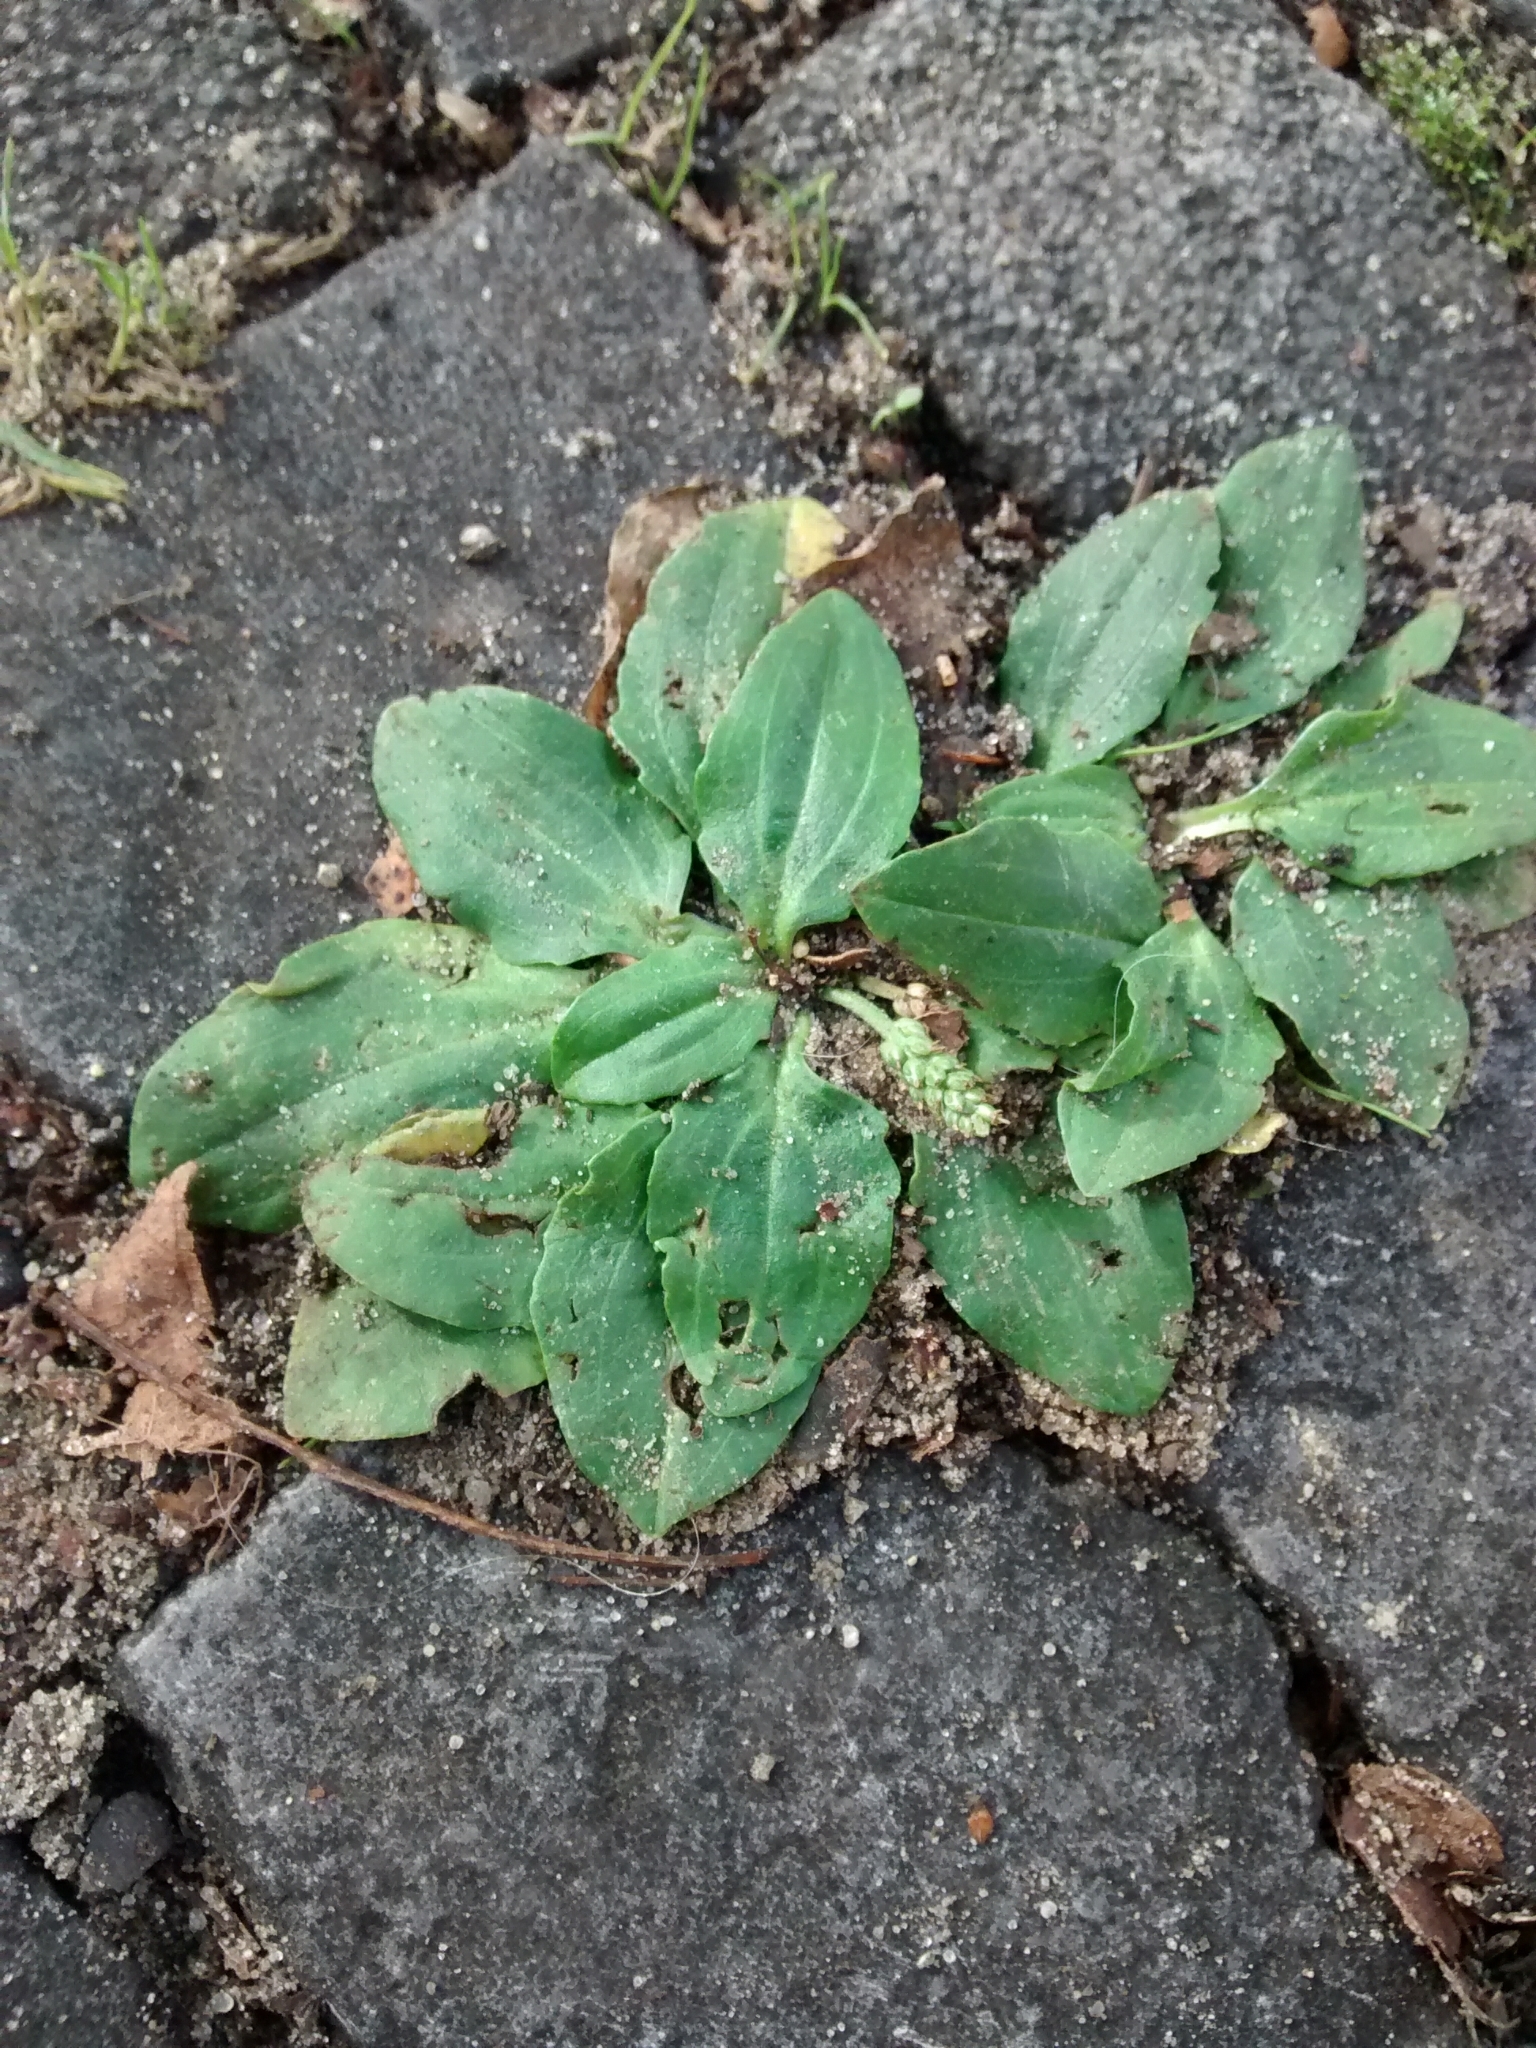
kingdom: Plantae
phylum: Tracheophyta
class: Magnoliopsida
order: Lamiales
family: Plantaginaceae
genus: Plantago
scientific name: Plantago major
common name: Common plantain
